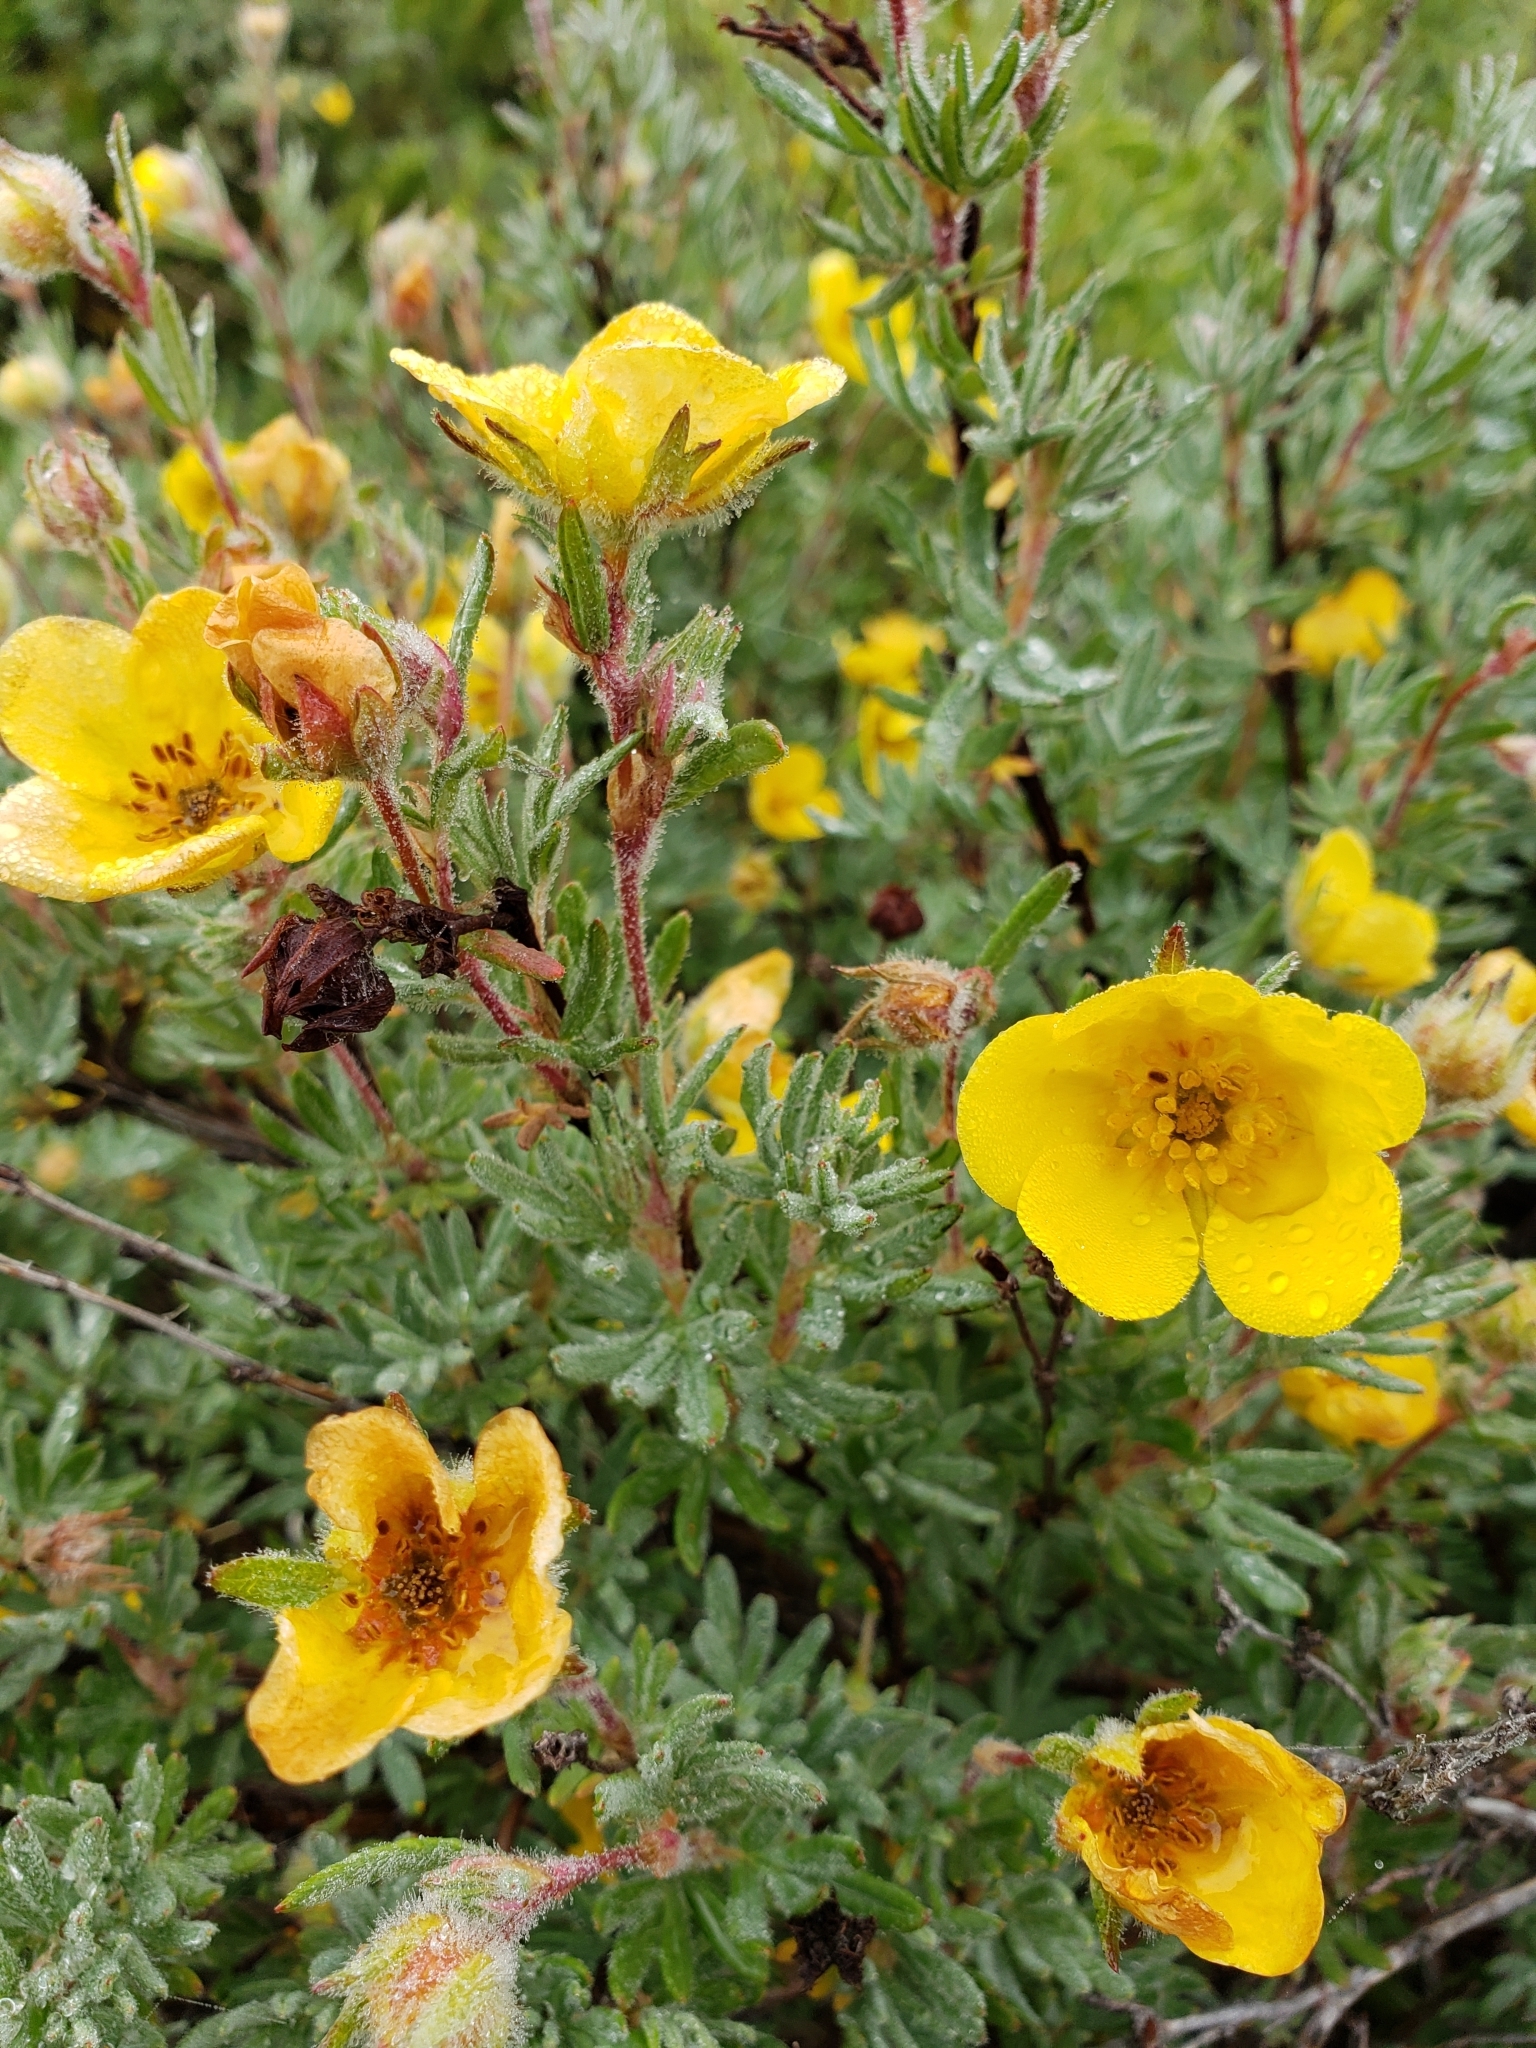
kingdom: Plantae
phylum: Tracheophyta
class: Magnoliopsida
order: Rosales
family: Rosaceae
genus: Dasiphora
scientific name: Dasiphora fruticosa
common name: Shrubby cinquefoil
